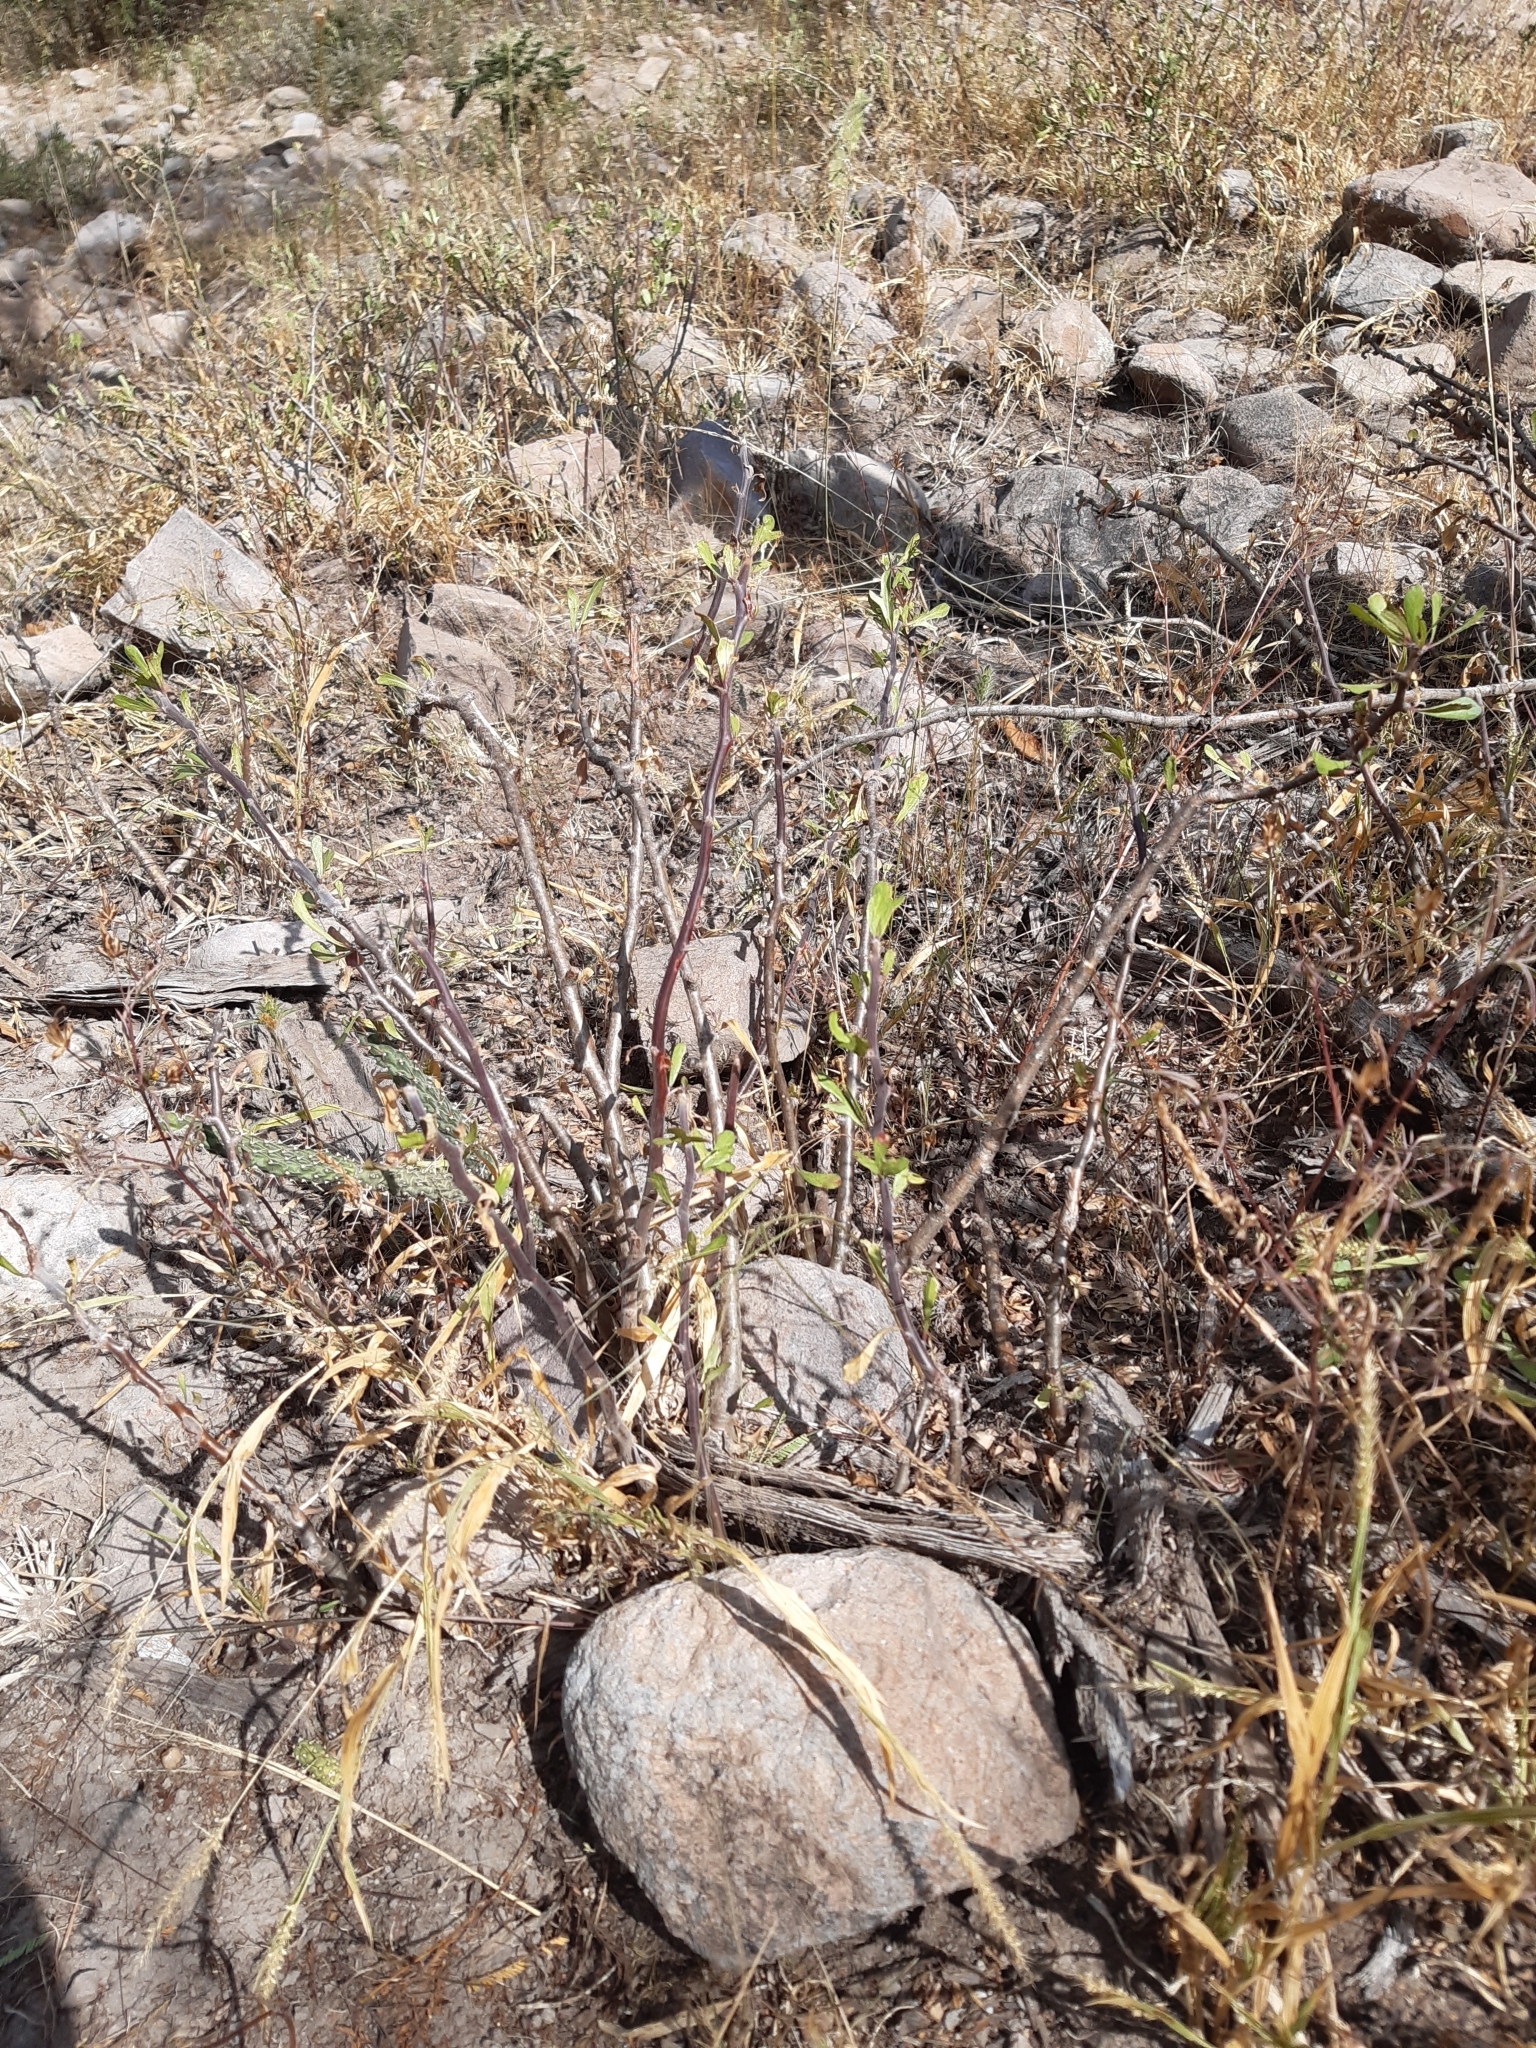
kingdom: Plantae
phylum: Tracheophyta
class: Magnoliopsida
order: Malpighiales
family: Euphorbiaceae
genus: Jatropha
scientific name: Jatropha dioica
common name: Leatherstem
